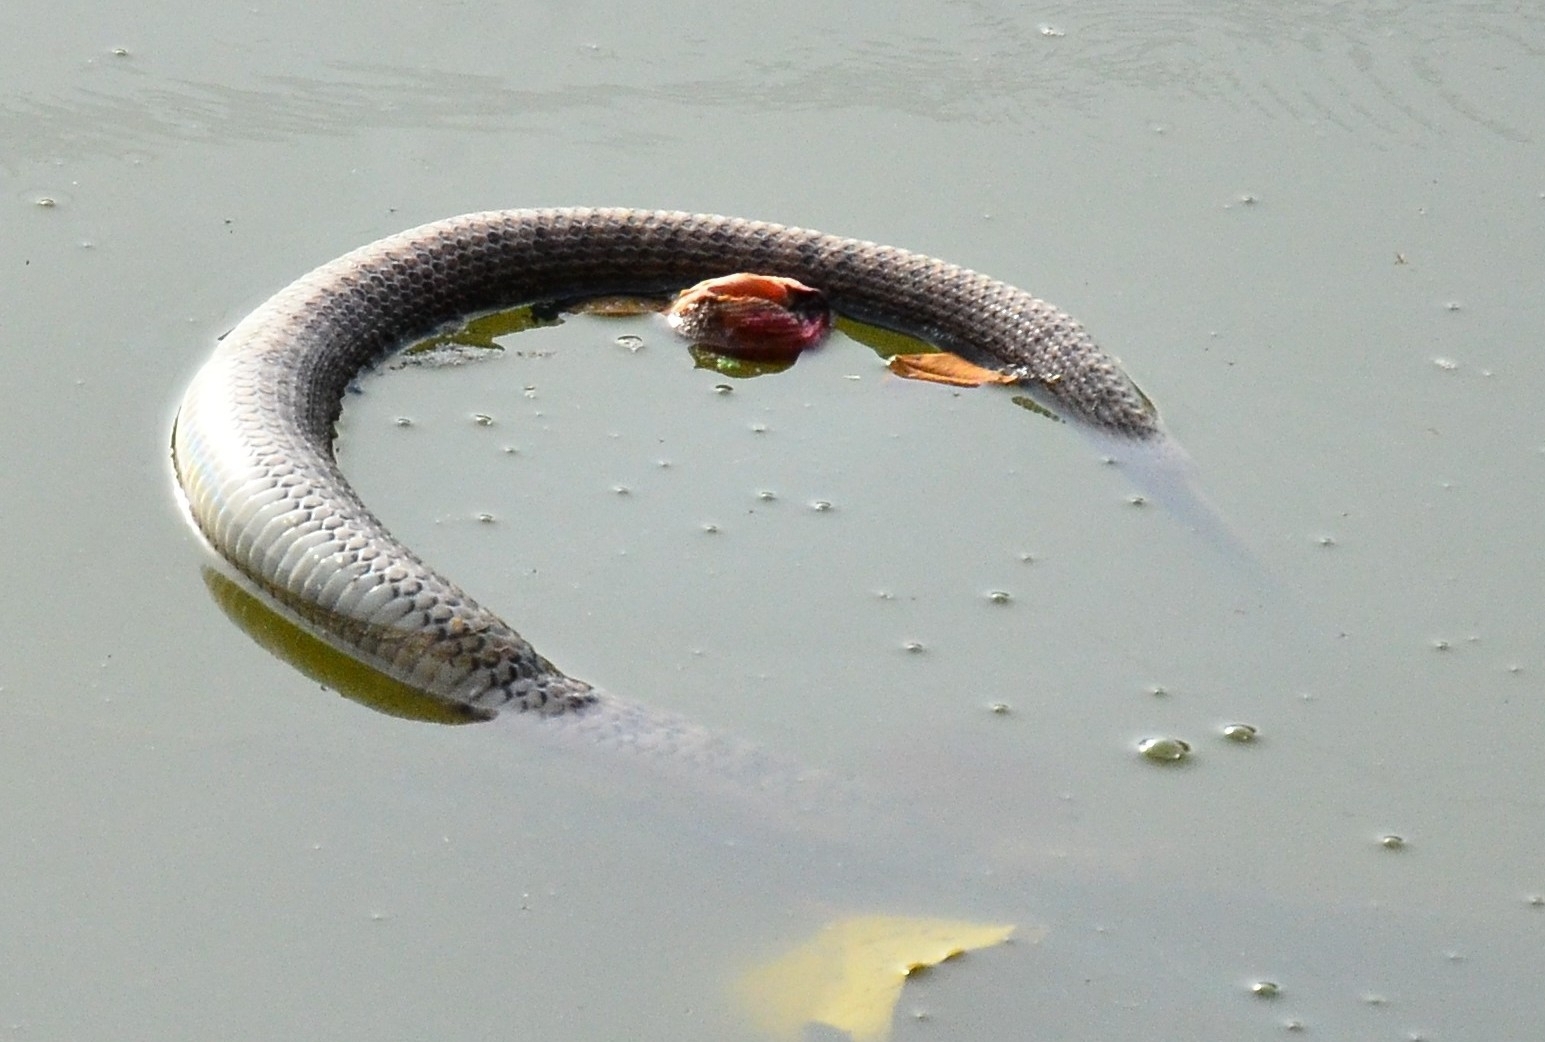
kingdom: Animalia
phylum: Chordata
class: Squamata
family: Colubridae
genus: Fowlea
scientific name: Fowlea piscator
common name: Asiatic water snake
